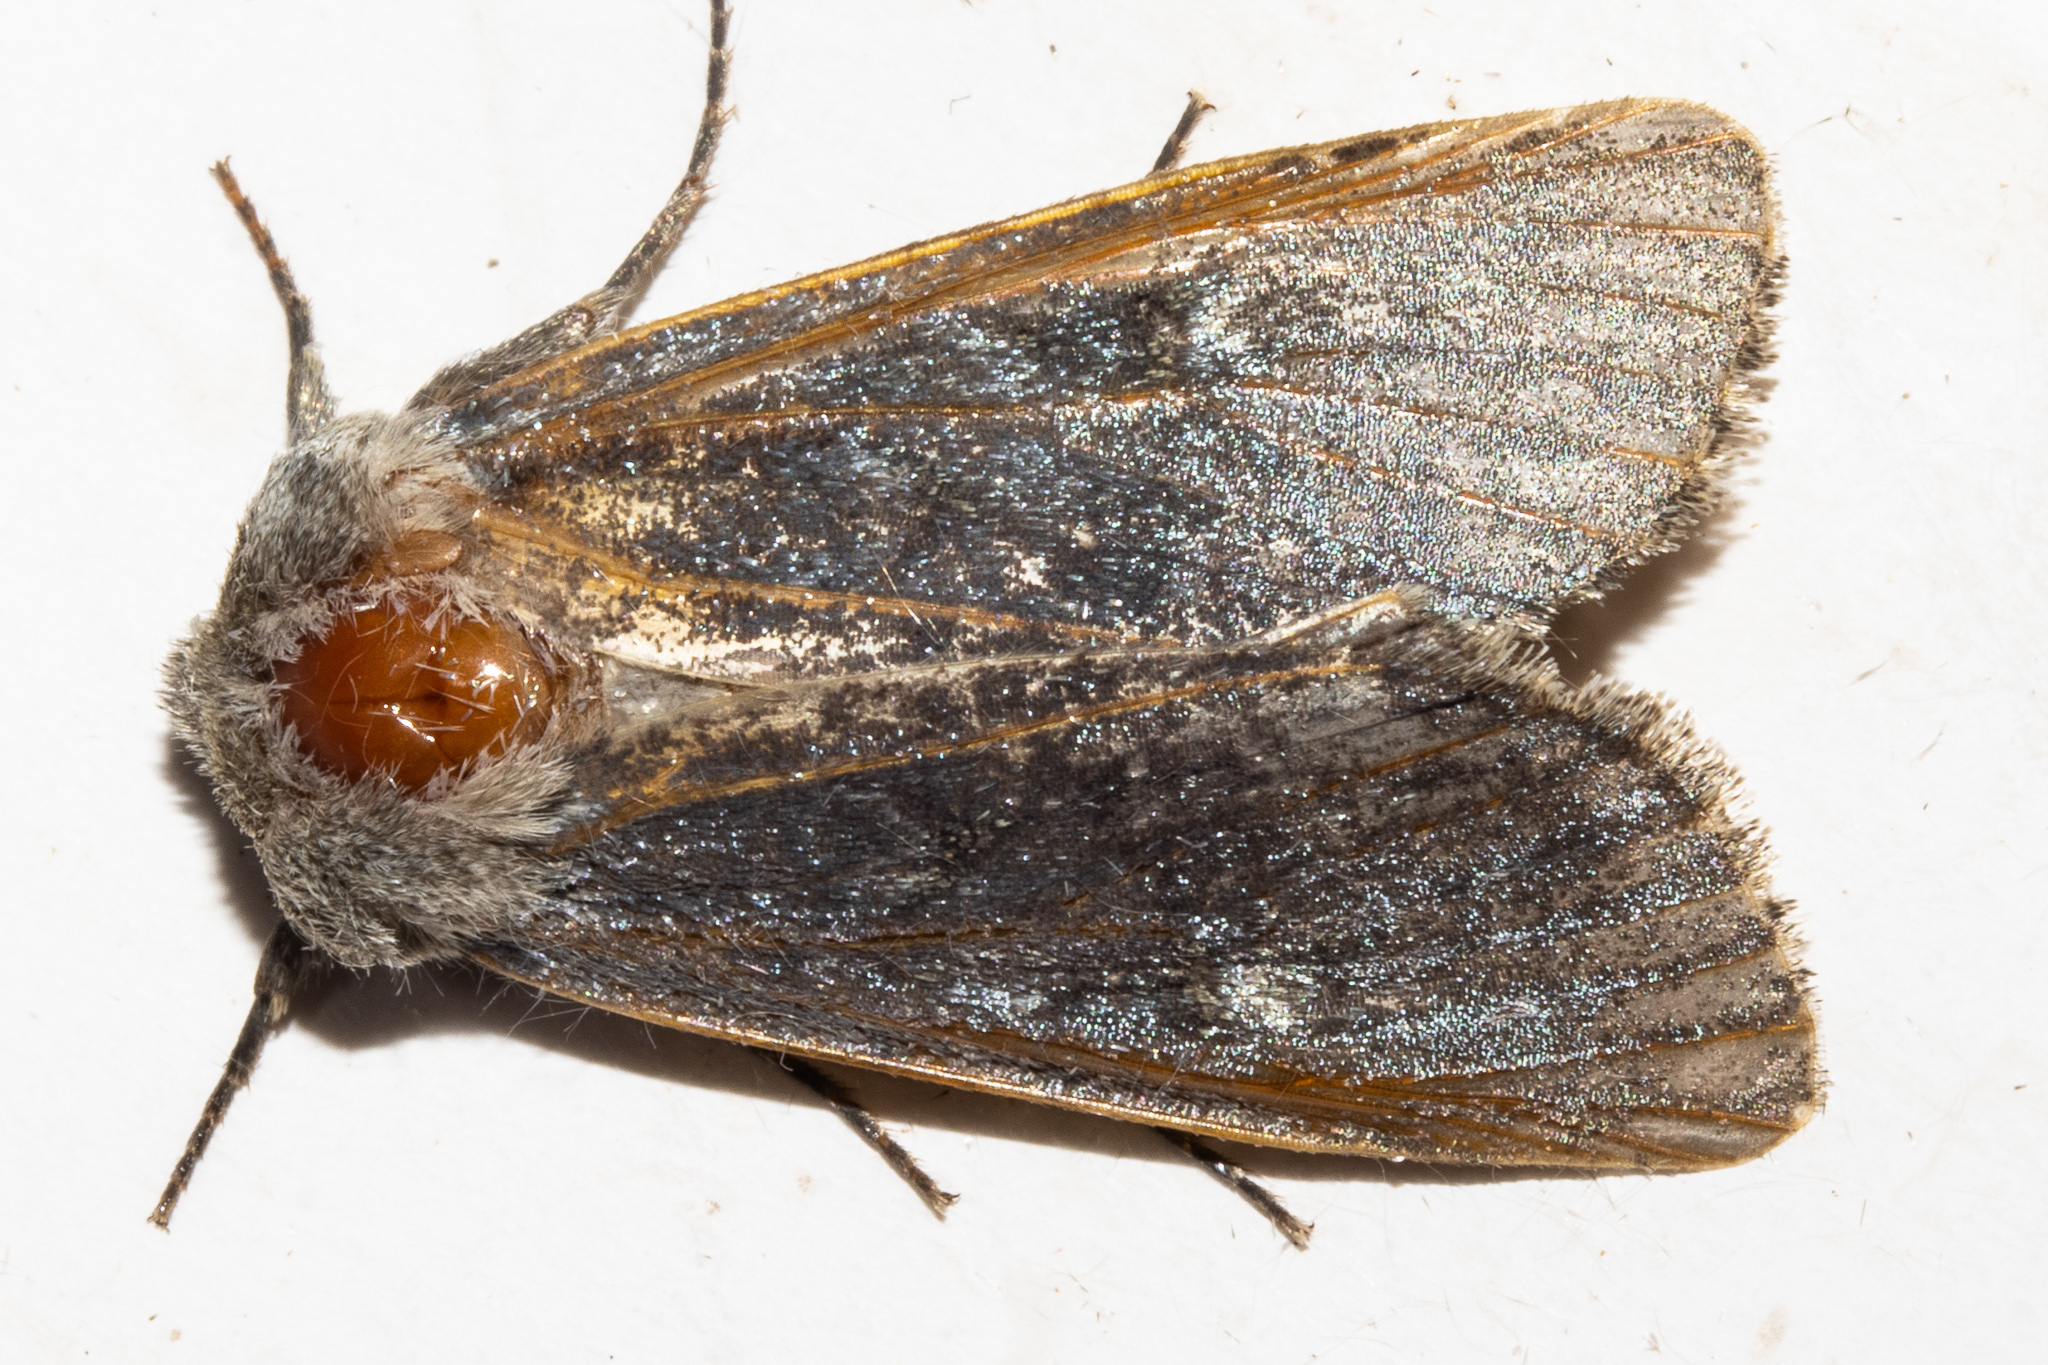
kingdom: Animalia
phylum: Arthropoda
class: Insecta
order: Lepidoptera
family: Noctuidae
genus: Ichneutica
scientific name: Ichneutica
